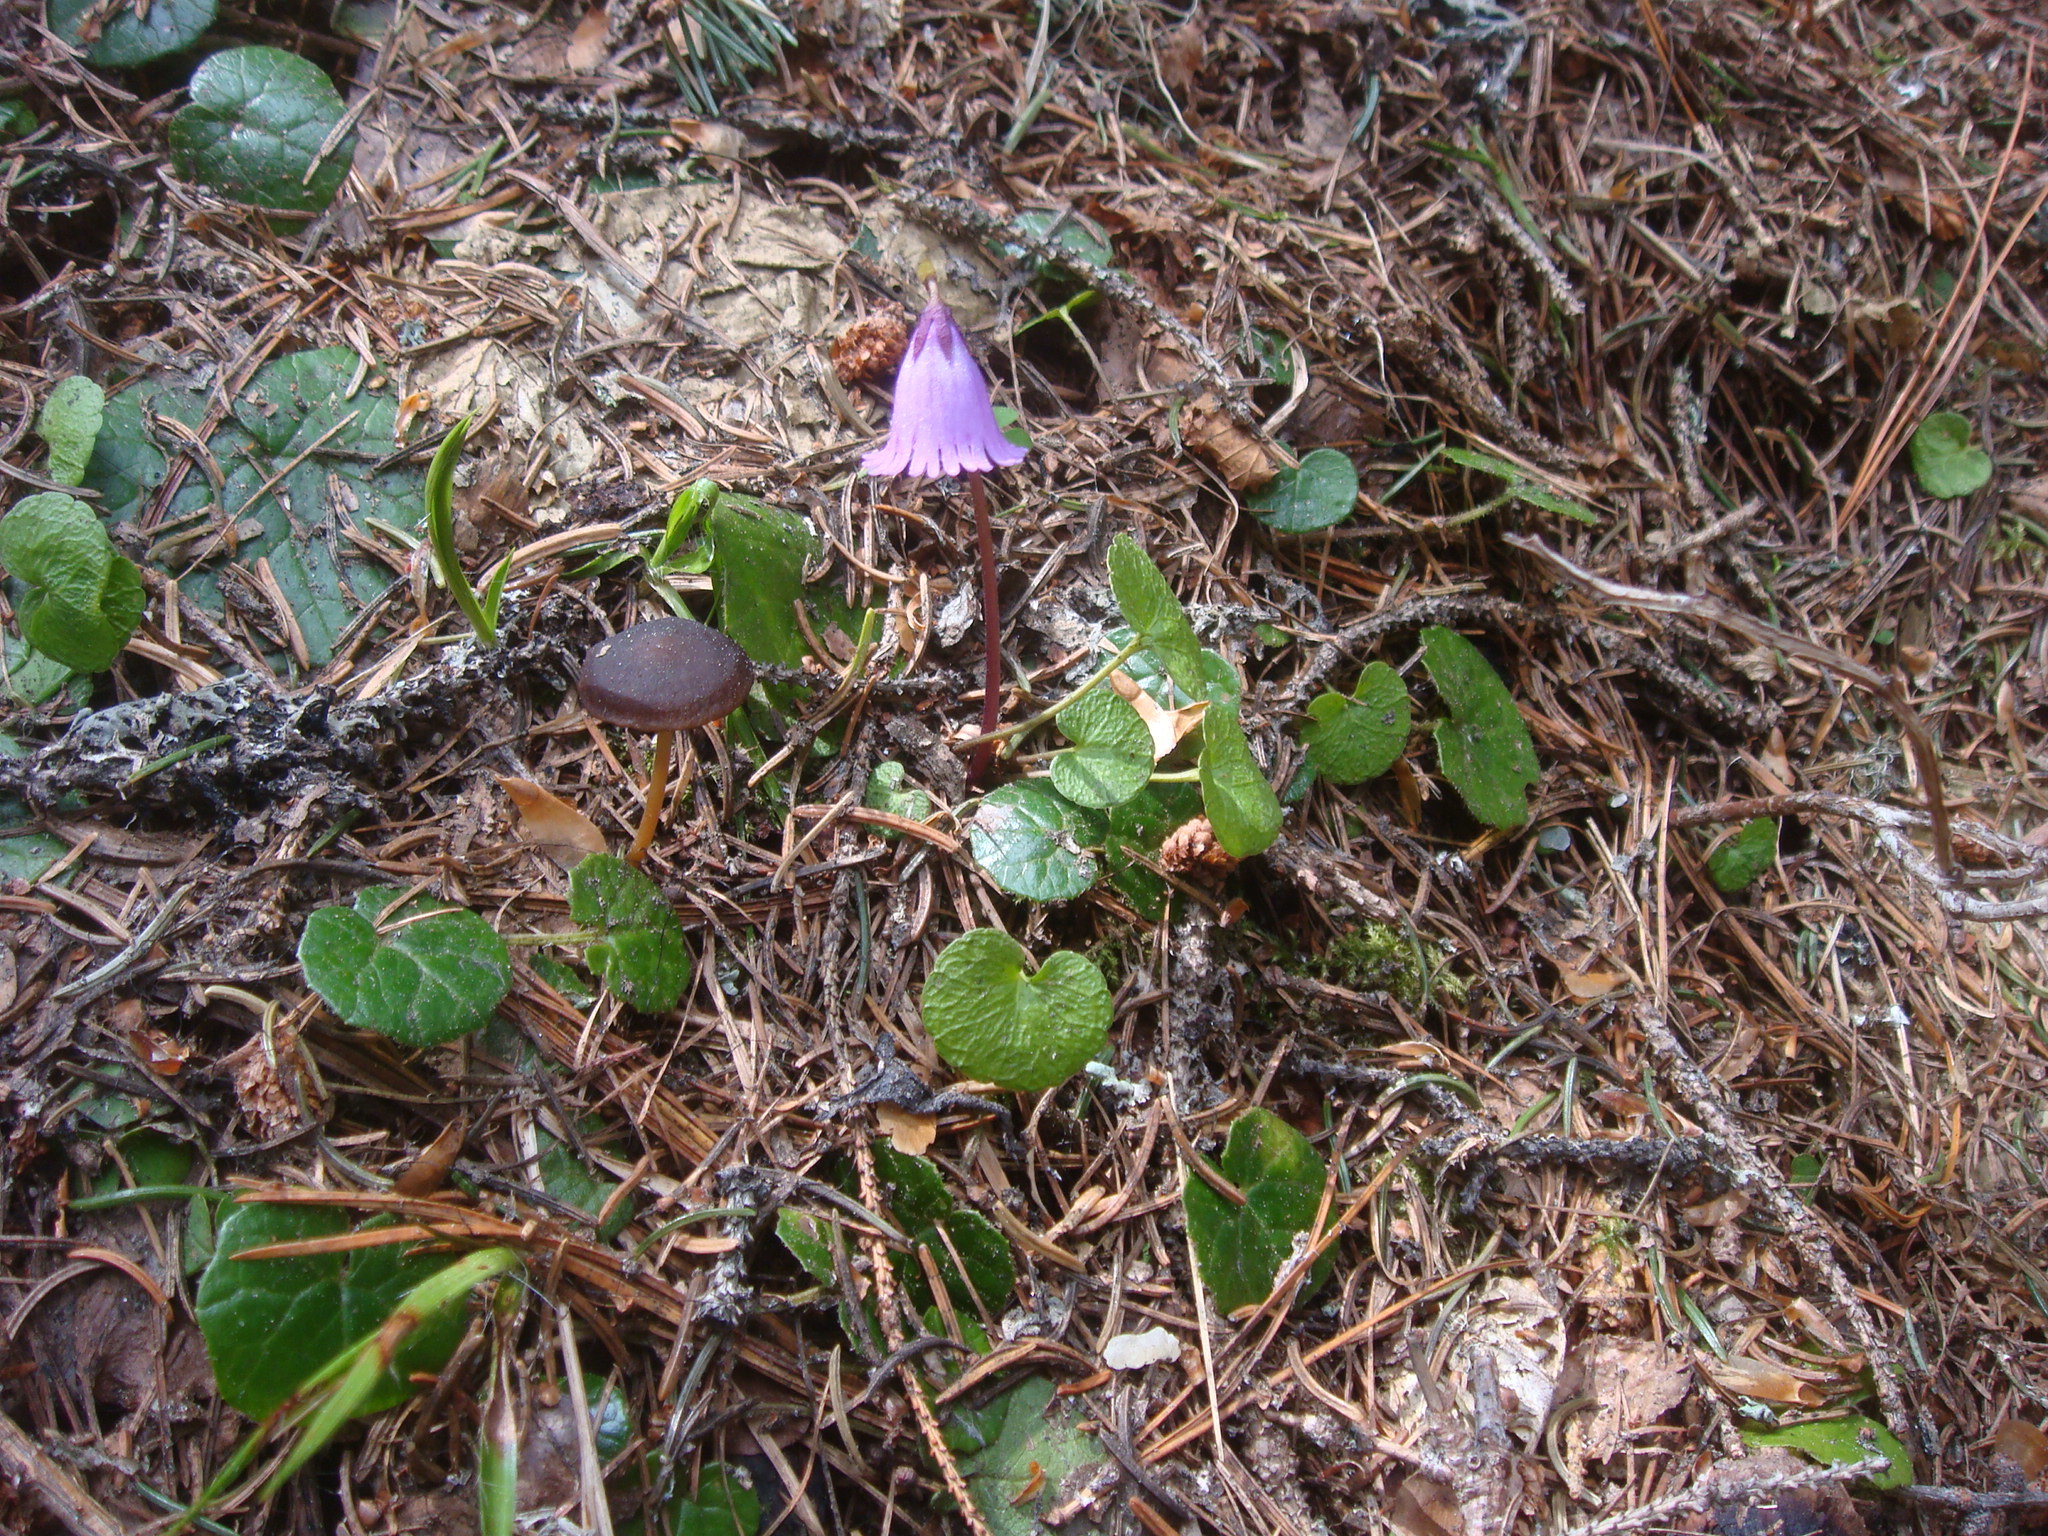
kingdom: Plantae
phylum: Tracheophyta
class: Magnoliopsida
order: Ericales
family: Primulaceae
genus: Soldanella
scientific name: Soldanella pusilla
